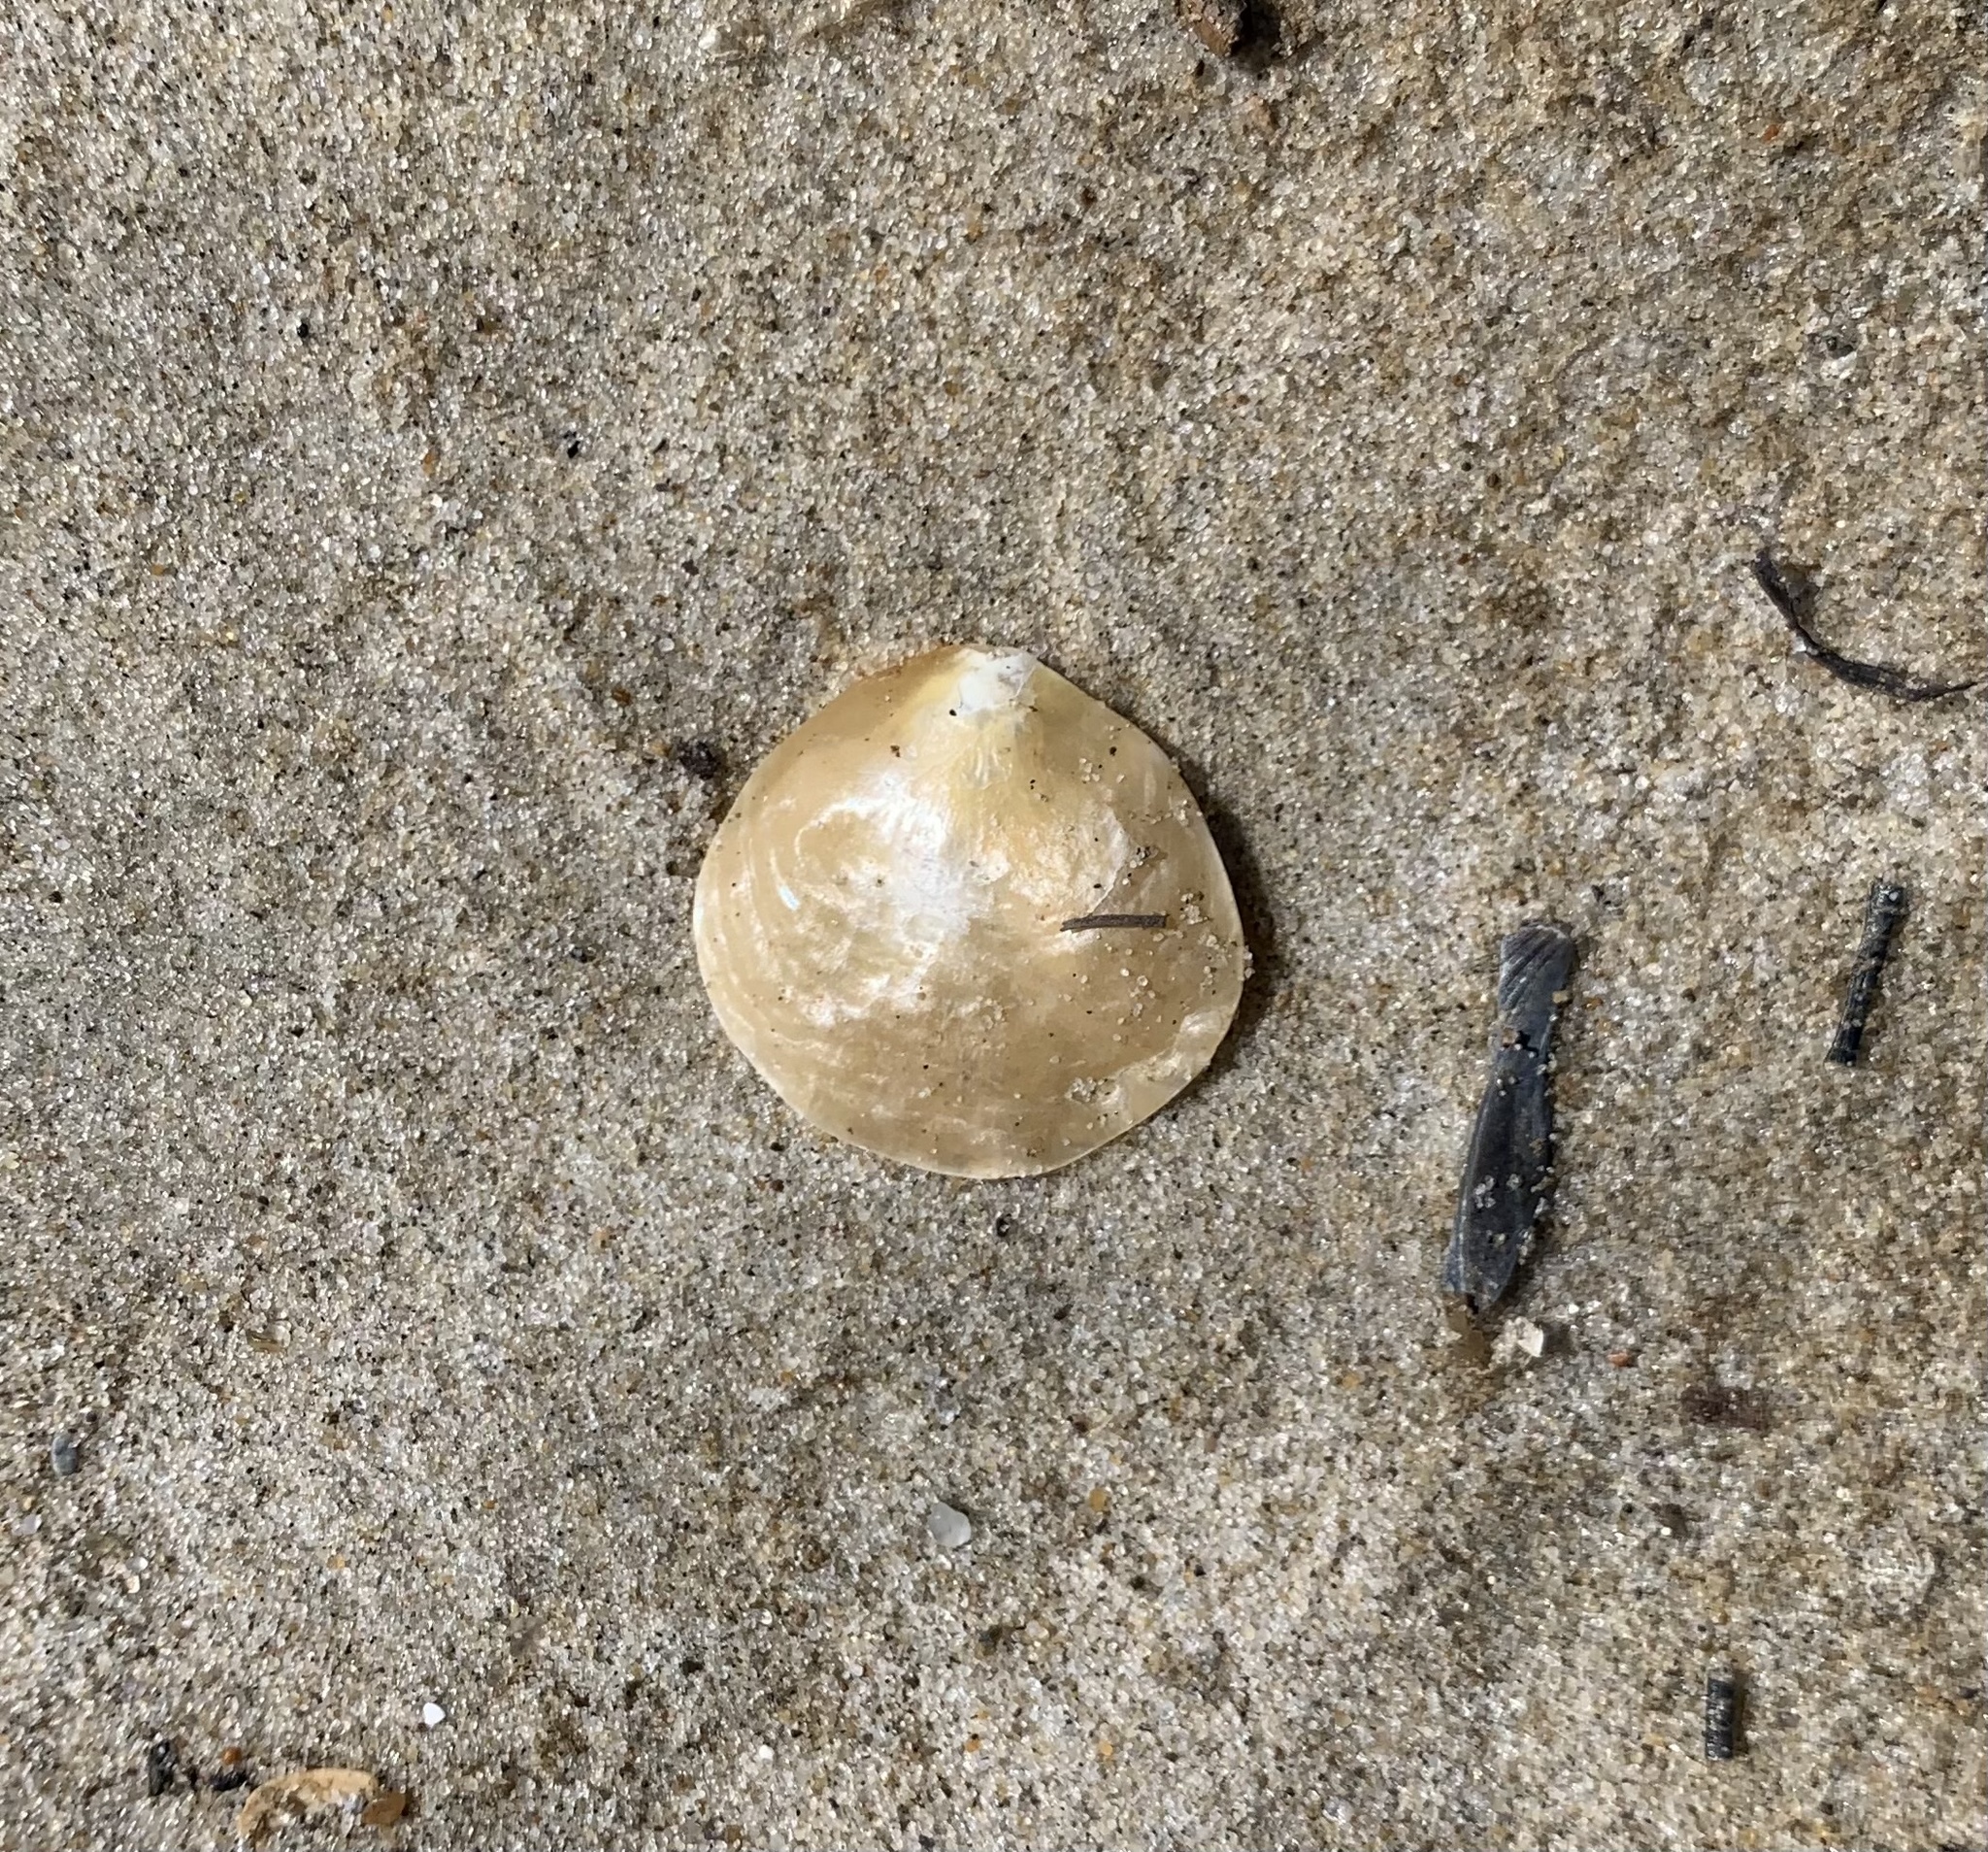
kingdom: Animalia
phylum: Mollusca
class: Bivalvia
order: Pectinida
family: Anomiidae
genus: Anomia
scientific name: Anomia simplex
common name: Common jingle shell
